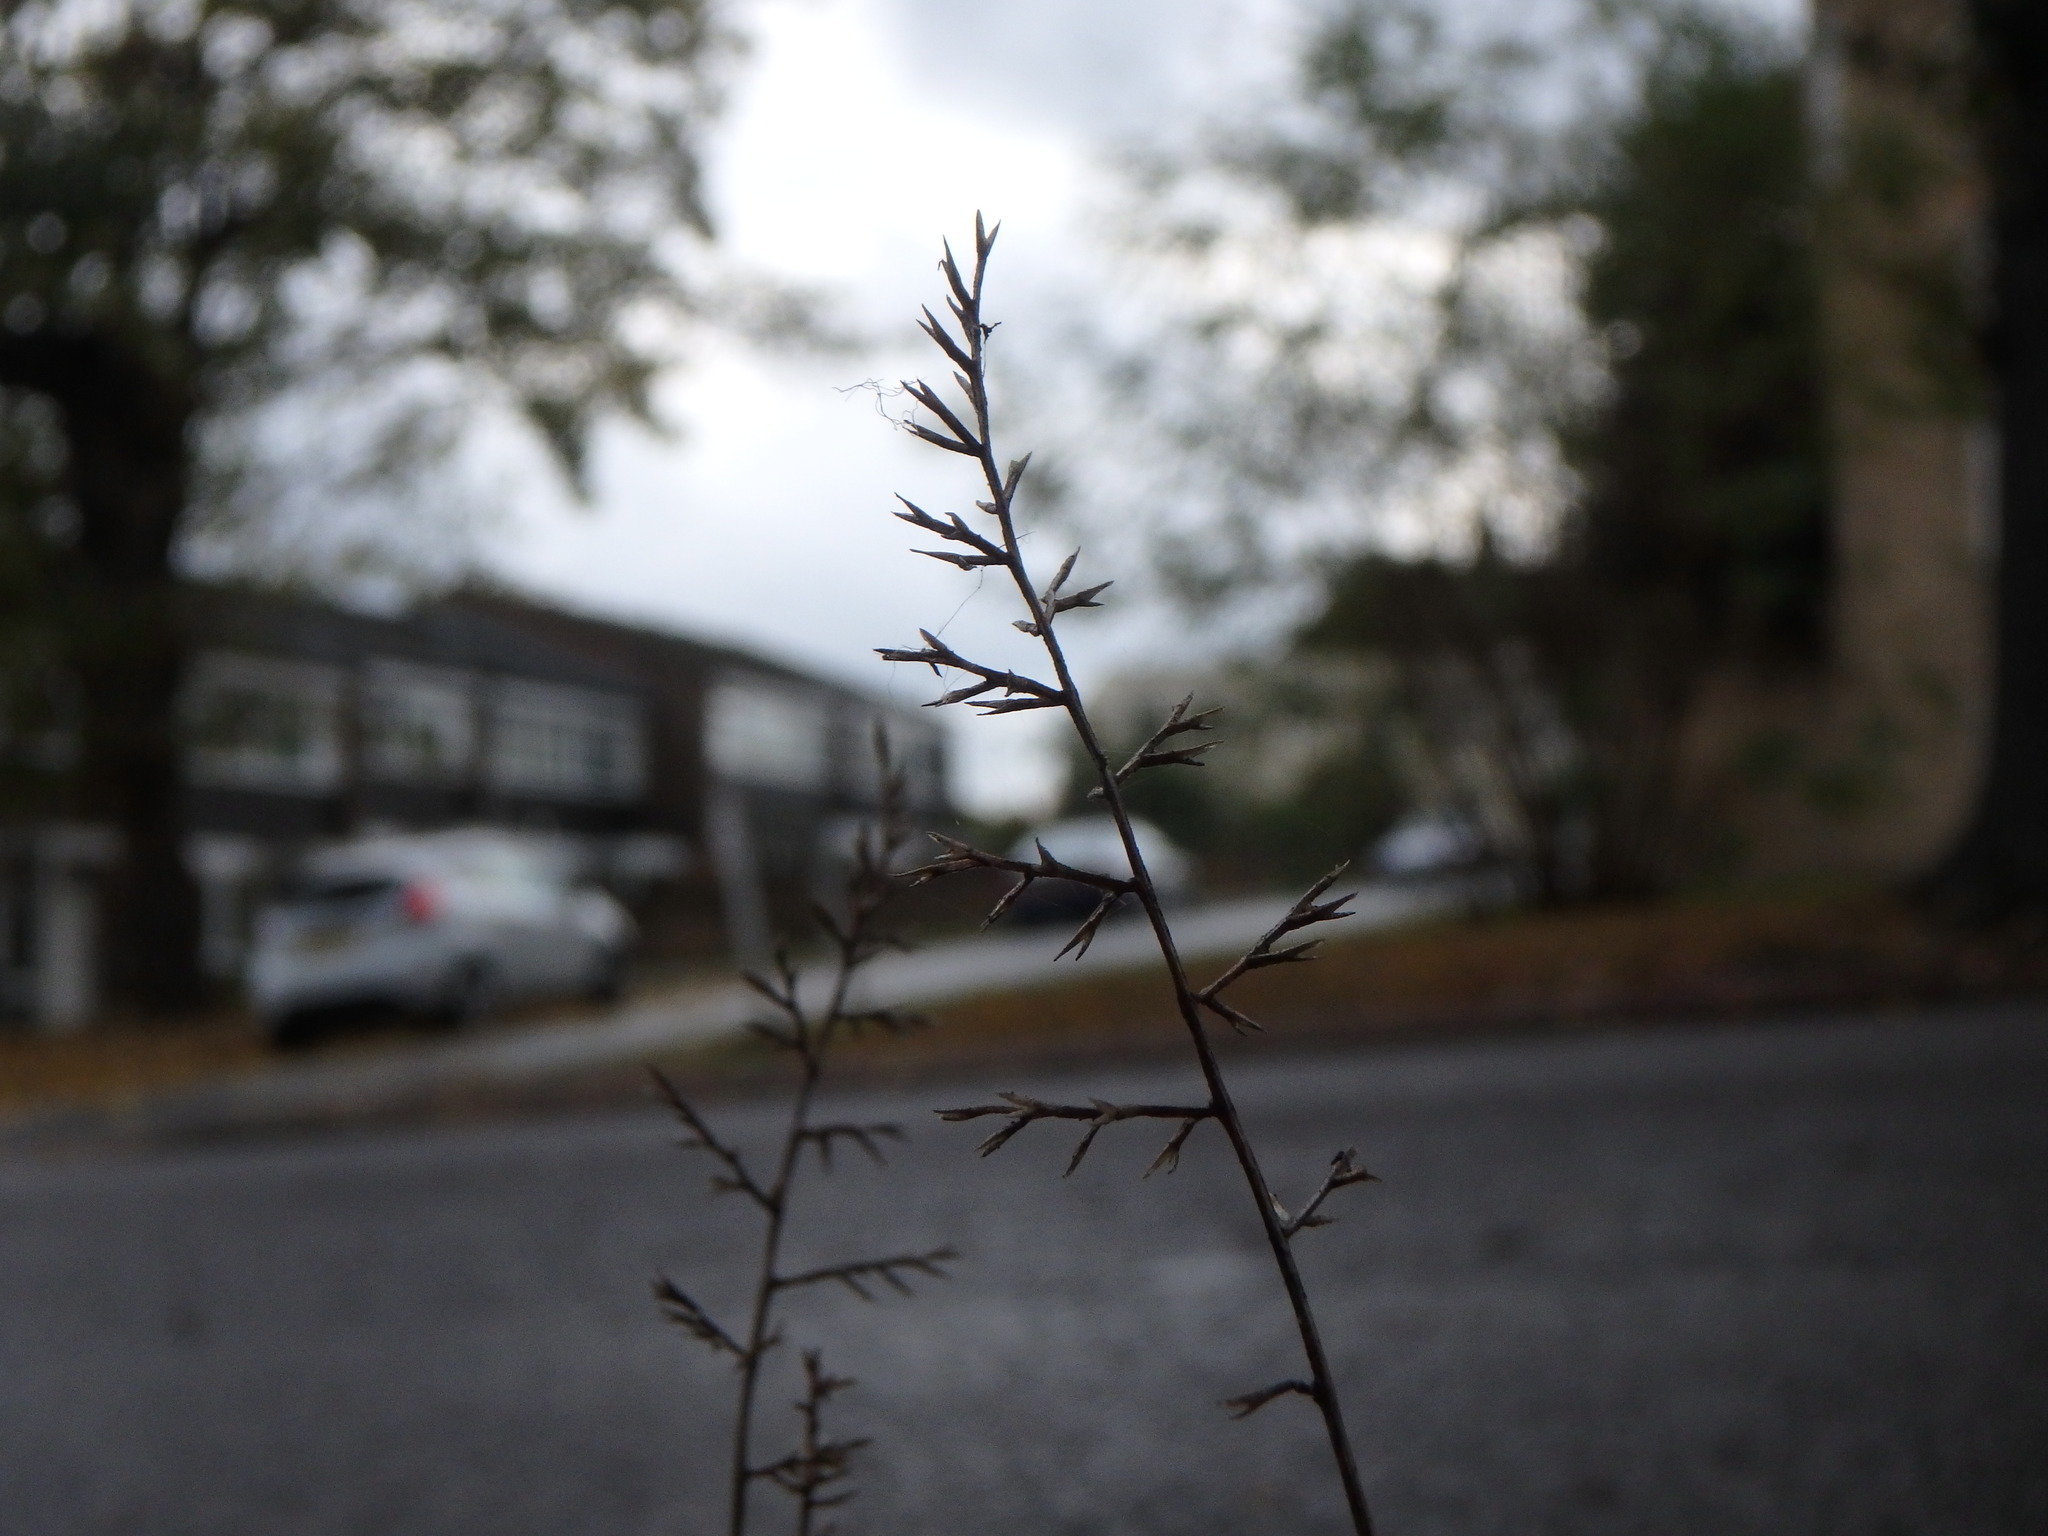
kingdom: Plantae
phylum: Tracheophyta
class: Liliopsida
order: Poales
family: Poaceae
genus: Catapodium
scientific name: Catapodium rigidum
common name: Fern-grass
